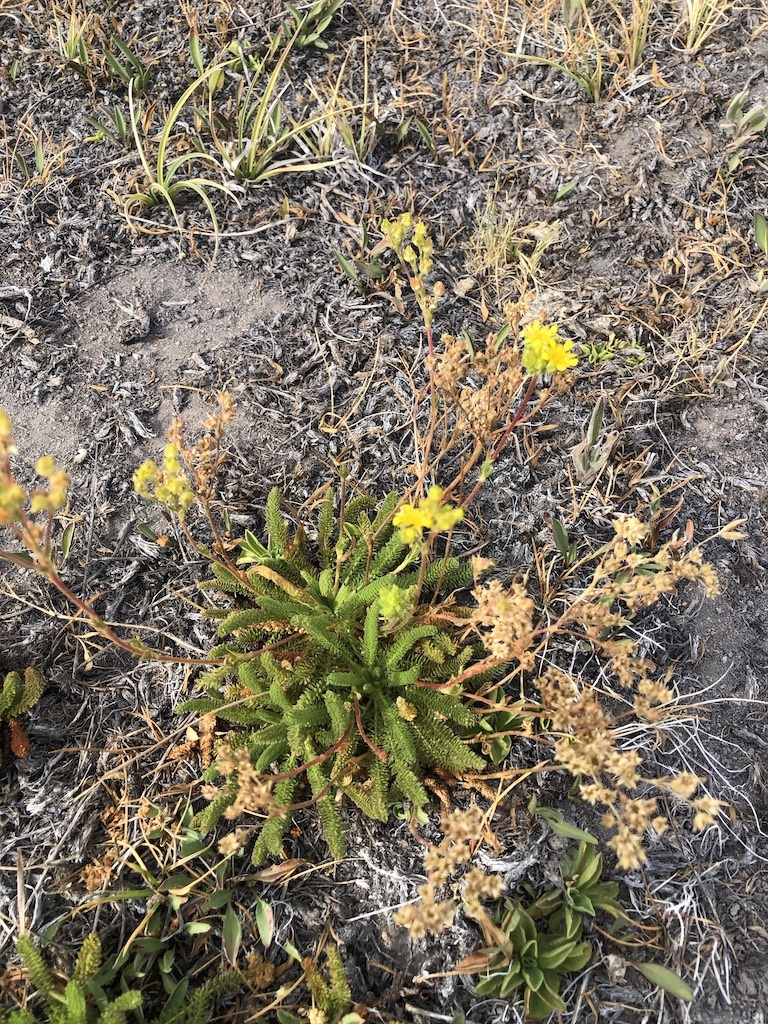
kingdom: Plantae
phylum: Tracheophyta
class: Magnoliopsida
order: Rosales
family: Rosaceae
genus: Potentilla
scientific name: Potentilla lycopodioides
